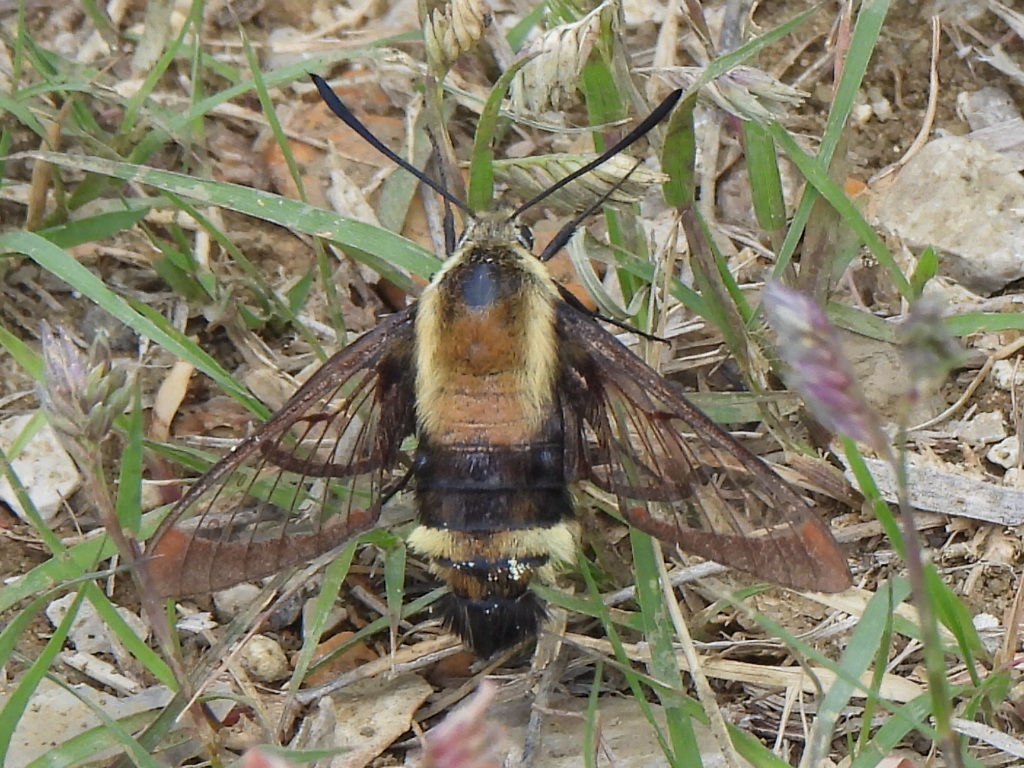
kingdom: Animalia
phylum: Arthropoda
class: Insecta
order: Lepidoptera
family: Sphingidae
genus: Hemaris
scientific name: Hemaris diffinis
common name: Bumblebee moth
